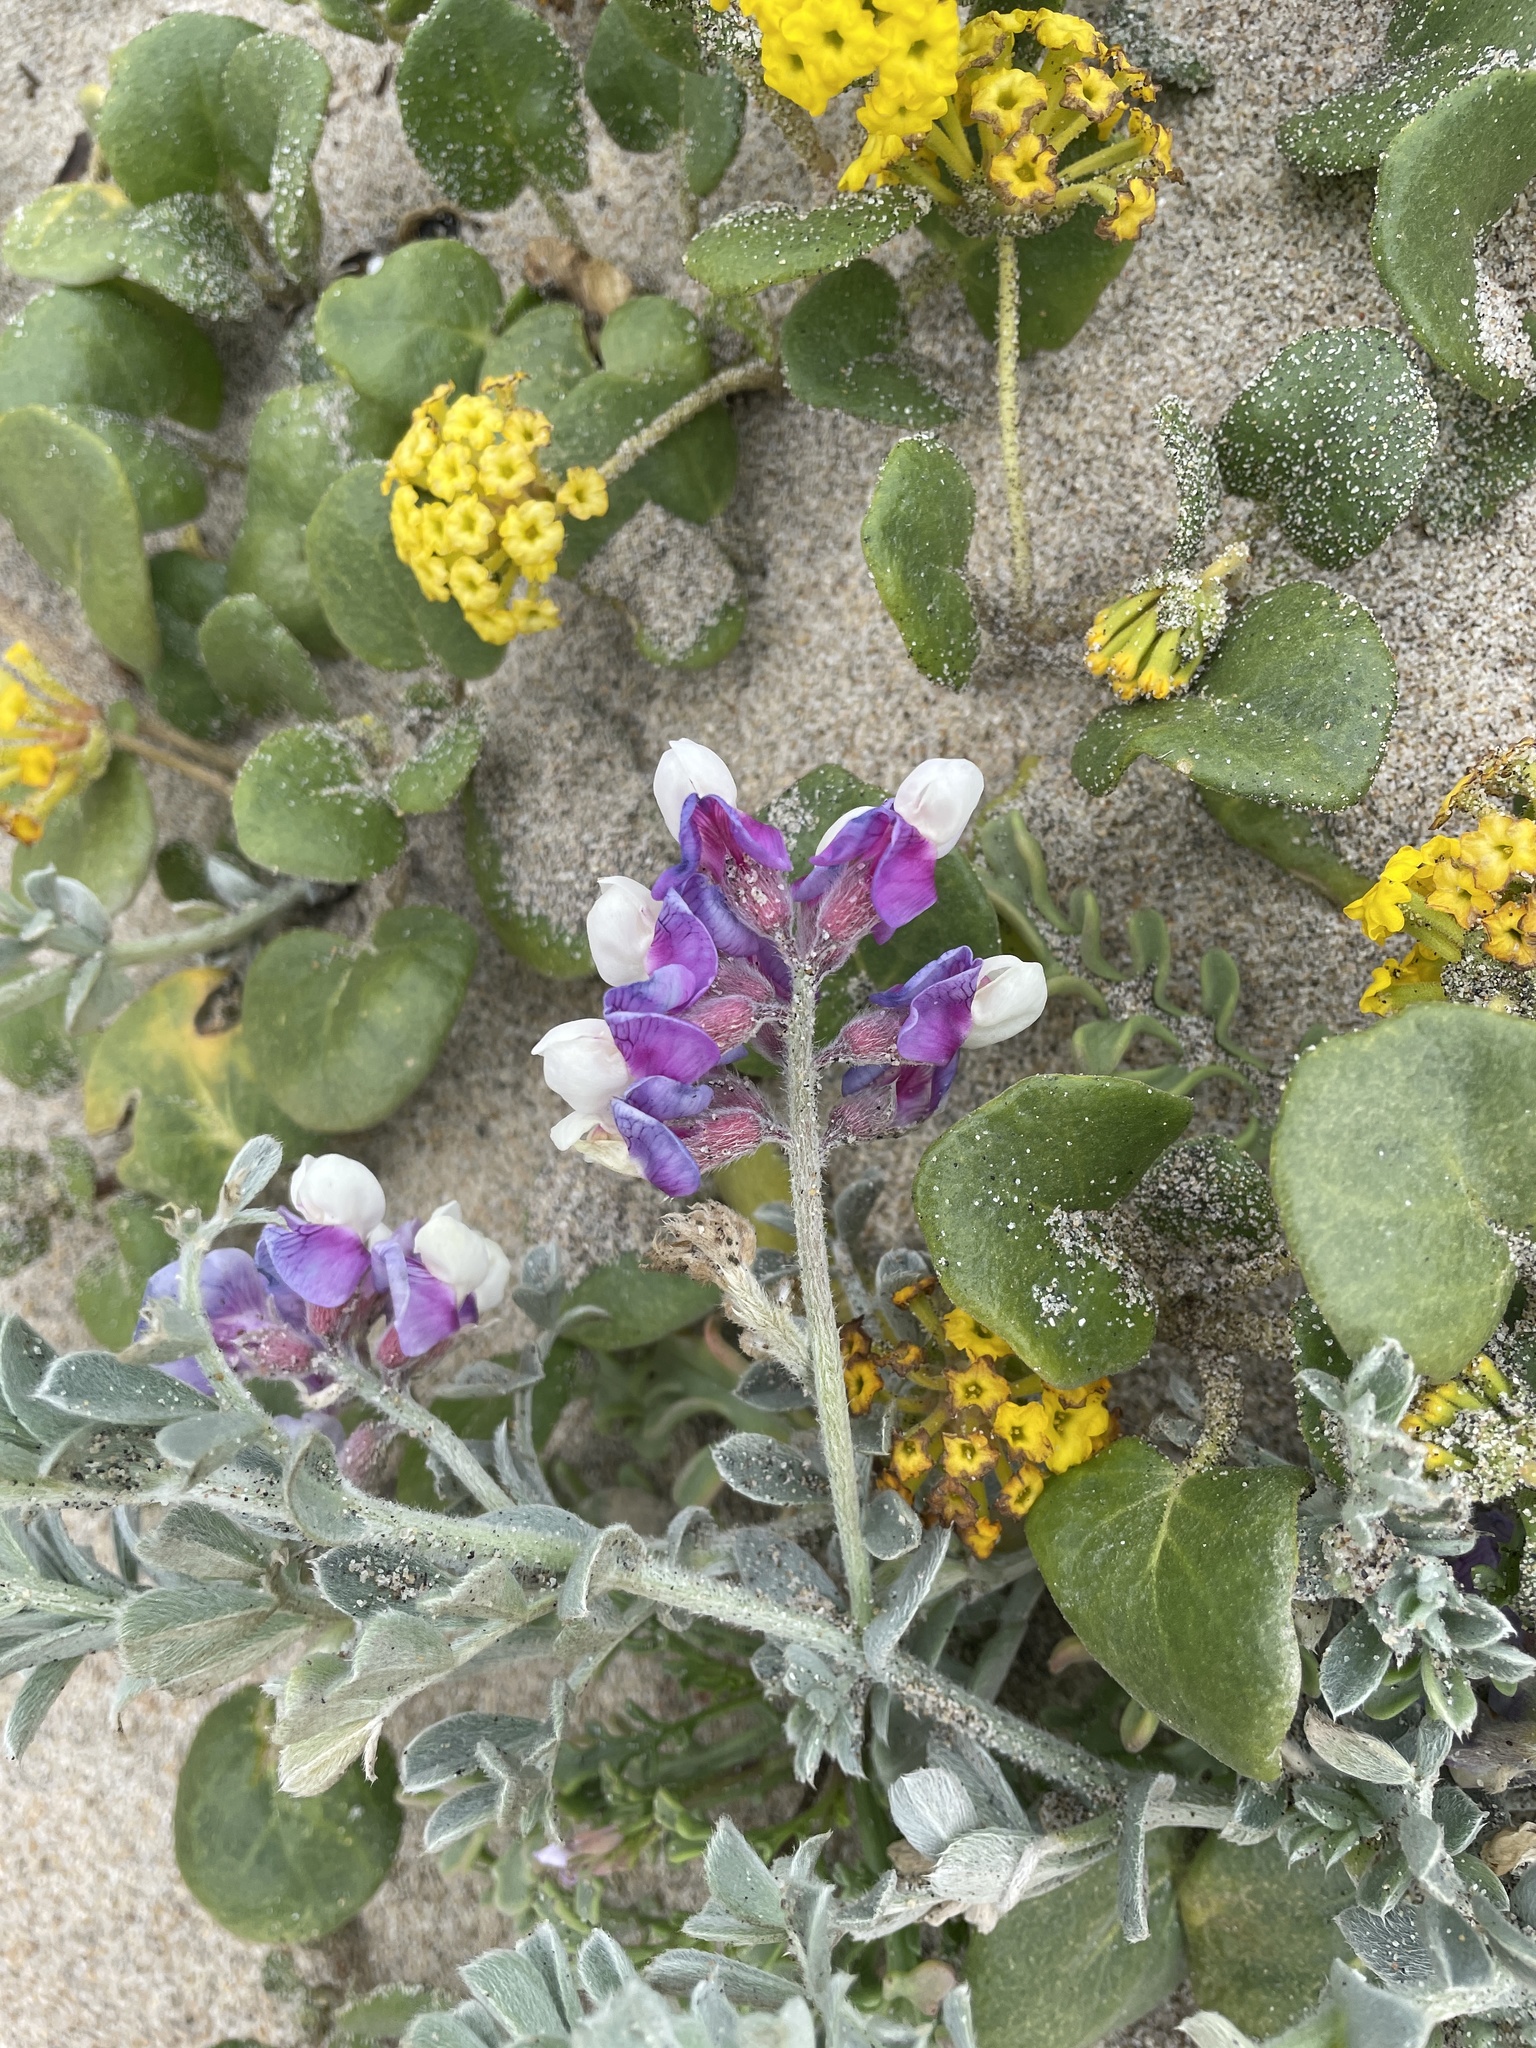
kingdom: Plantae
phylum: Tracheophyta
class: Magnoliopsida
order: Fabales
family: Fabaceae
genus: Lathyrus
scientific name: Lathyrus littoralis
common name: Dune sweet pea
